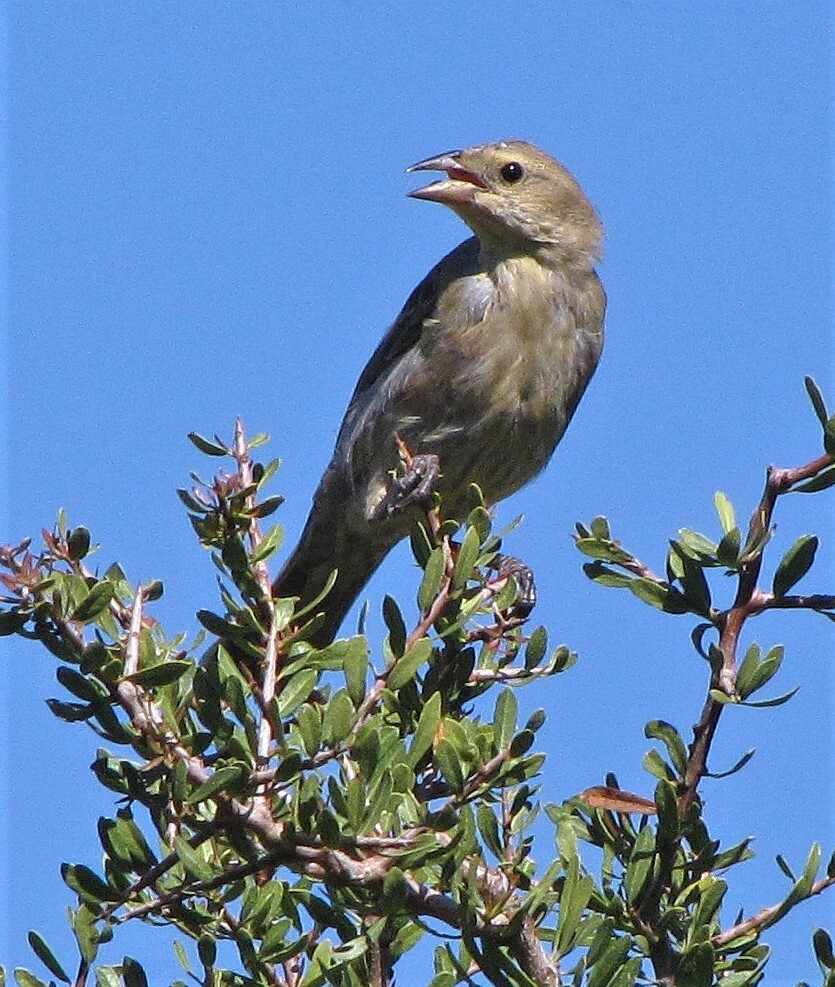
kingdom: Animalia
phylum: Chordata
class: Aves
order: Passeriformes
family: Icteridae
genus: Molothrus
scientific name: Molothrus bonariensis
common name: Shiny cowbird
